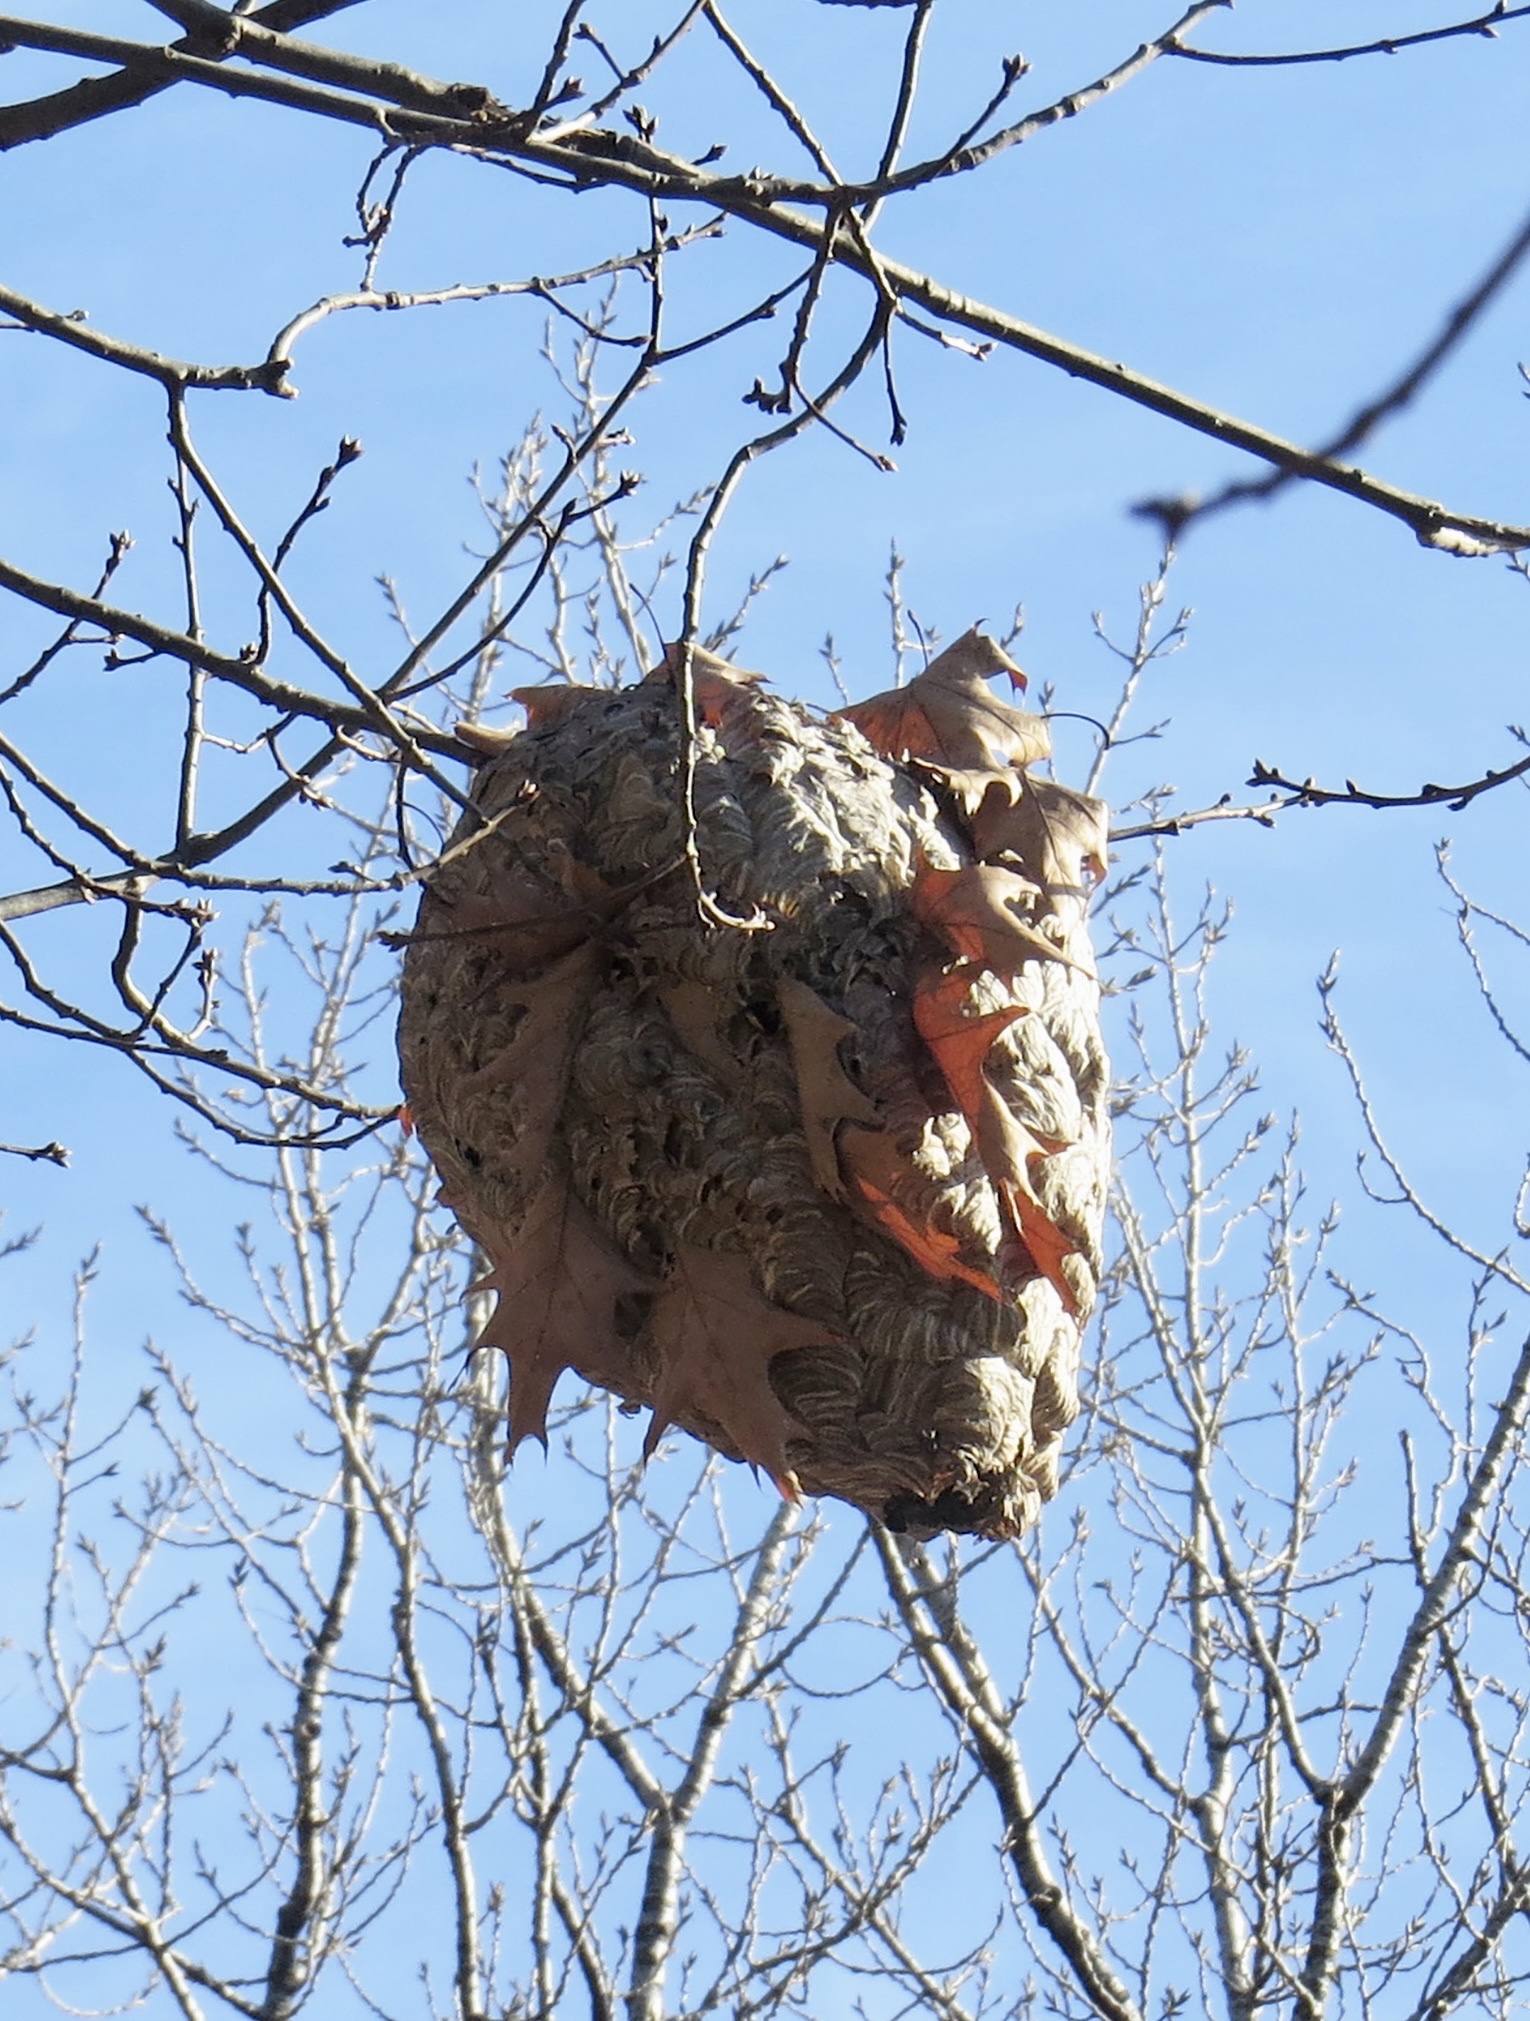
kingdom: Animalia
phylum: Arthropoda
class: Insecta
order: Hymenoptera
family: Vespidae
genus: Dolichovespula
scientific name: Dolichovespula maculata
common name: Bald-faced hornet
